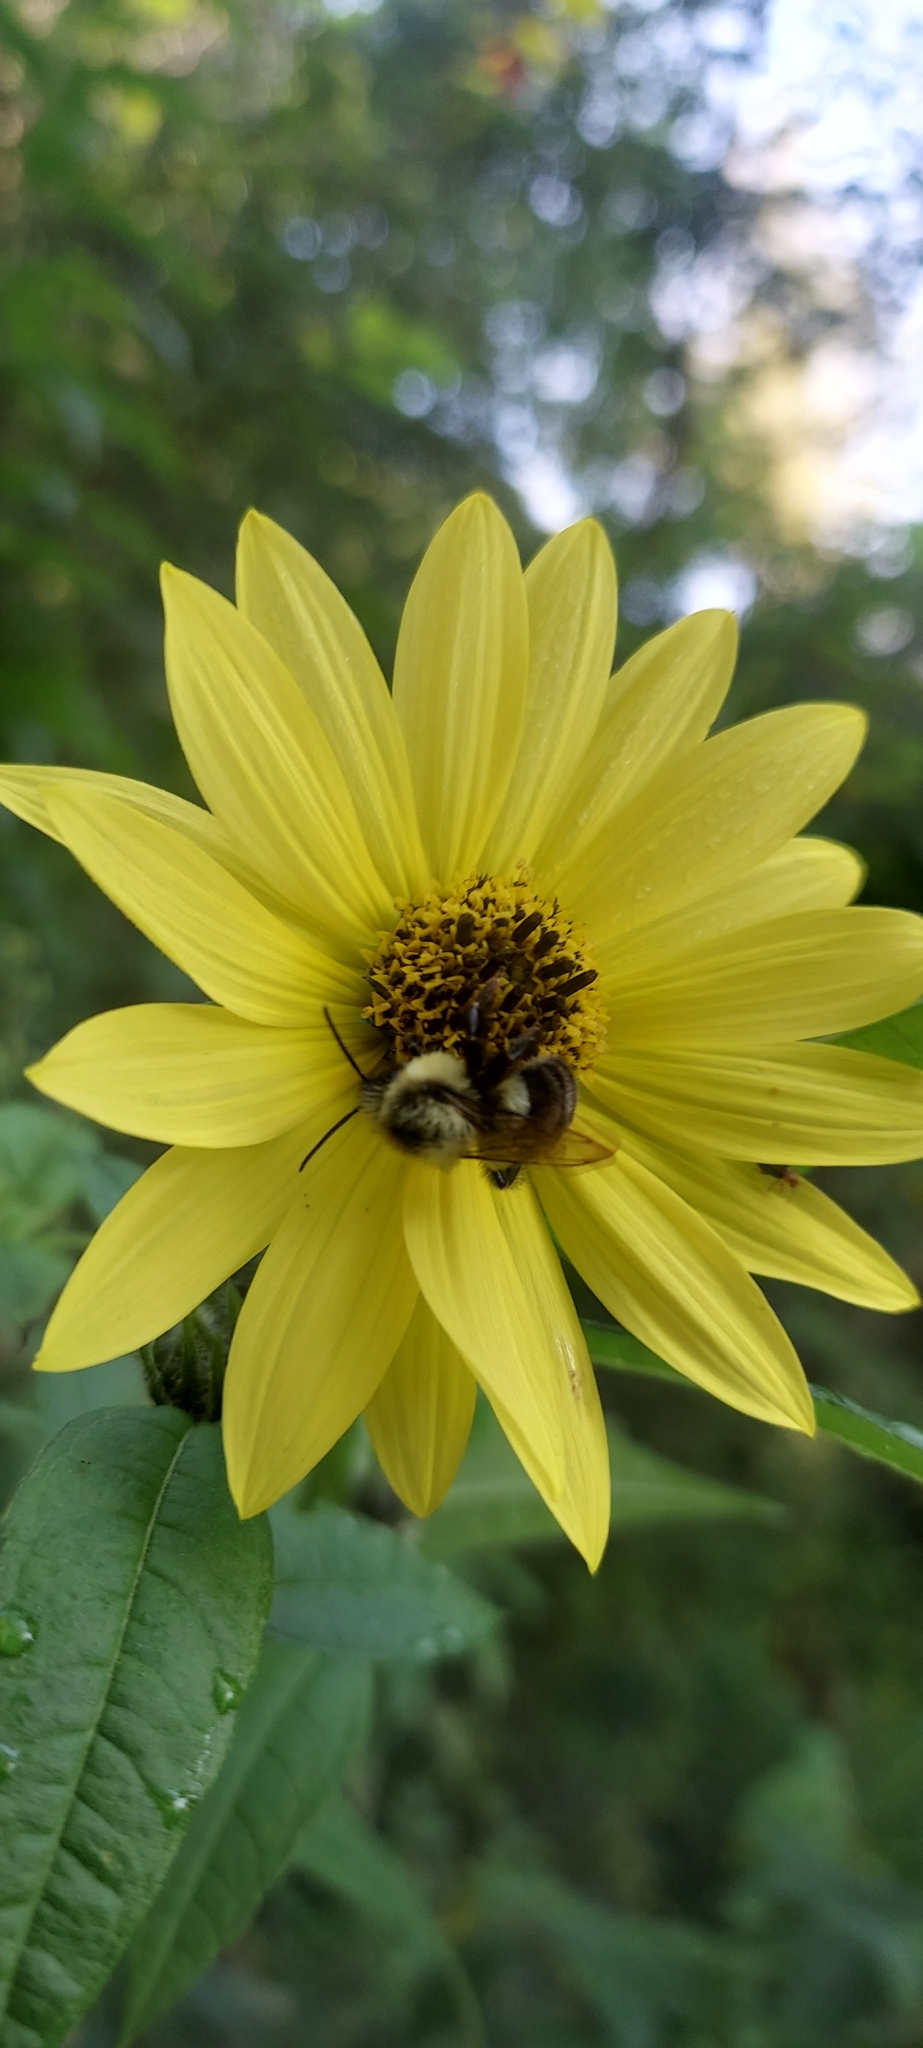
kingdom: Animalia
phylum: Arthropoda
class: Insecta
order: Hymenoptera
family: Apidae
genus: Bombus
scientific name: Bombus impatiens
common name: Common eastern bumble bee
